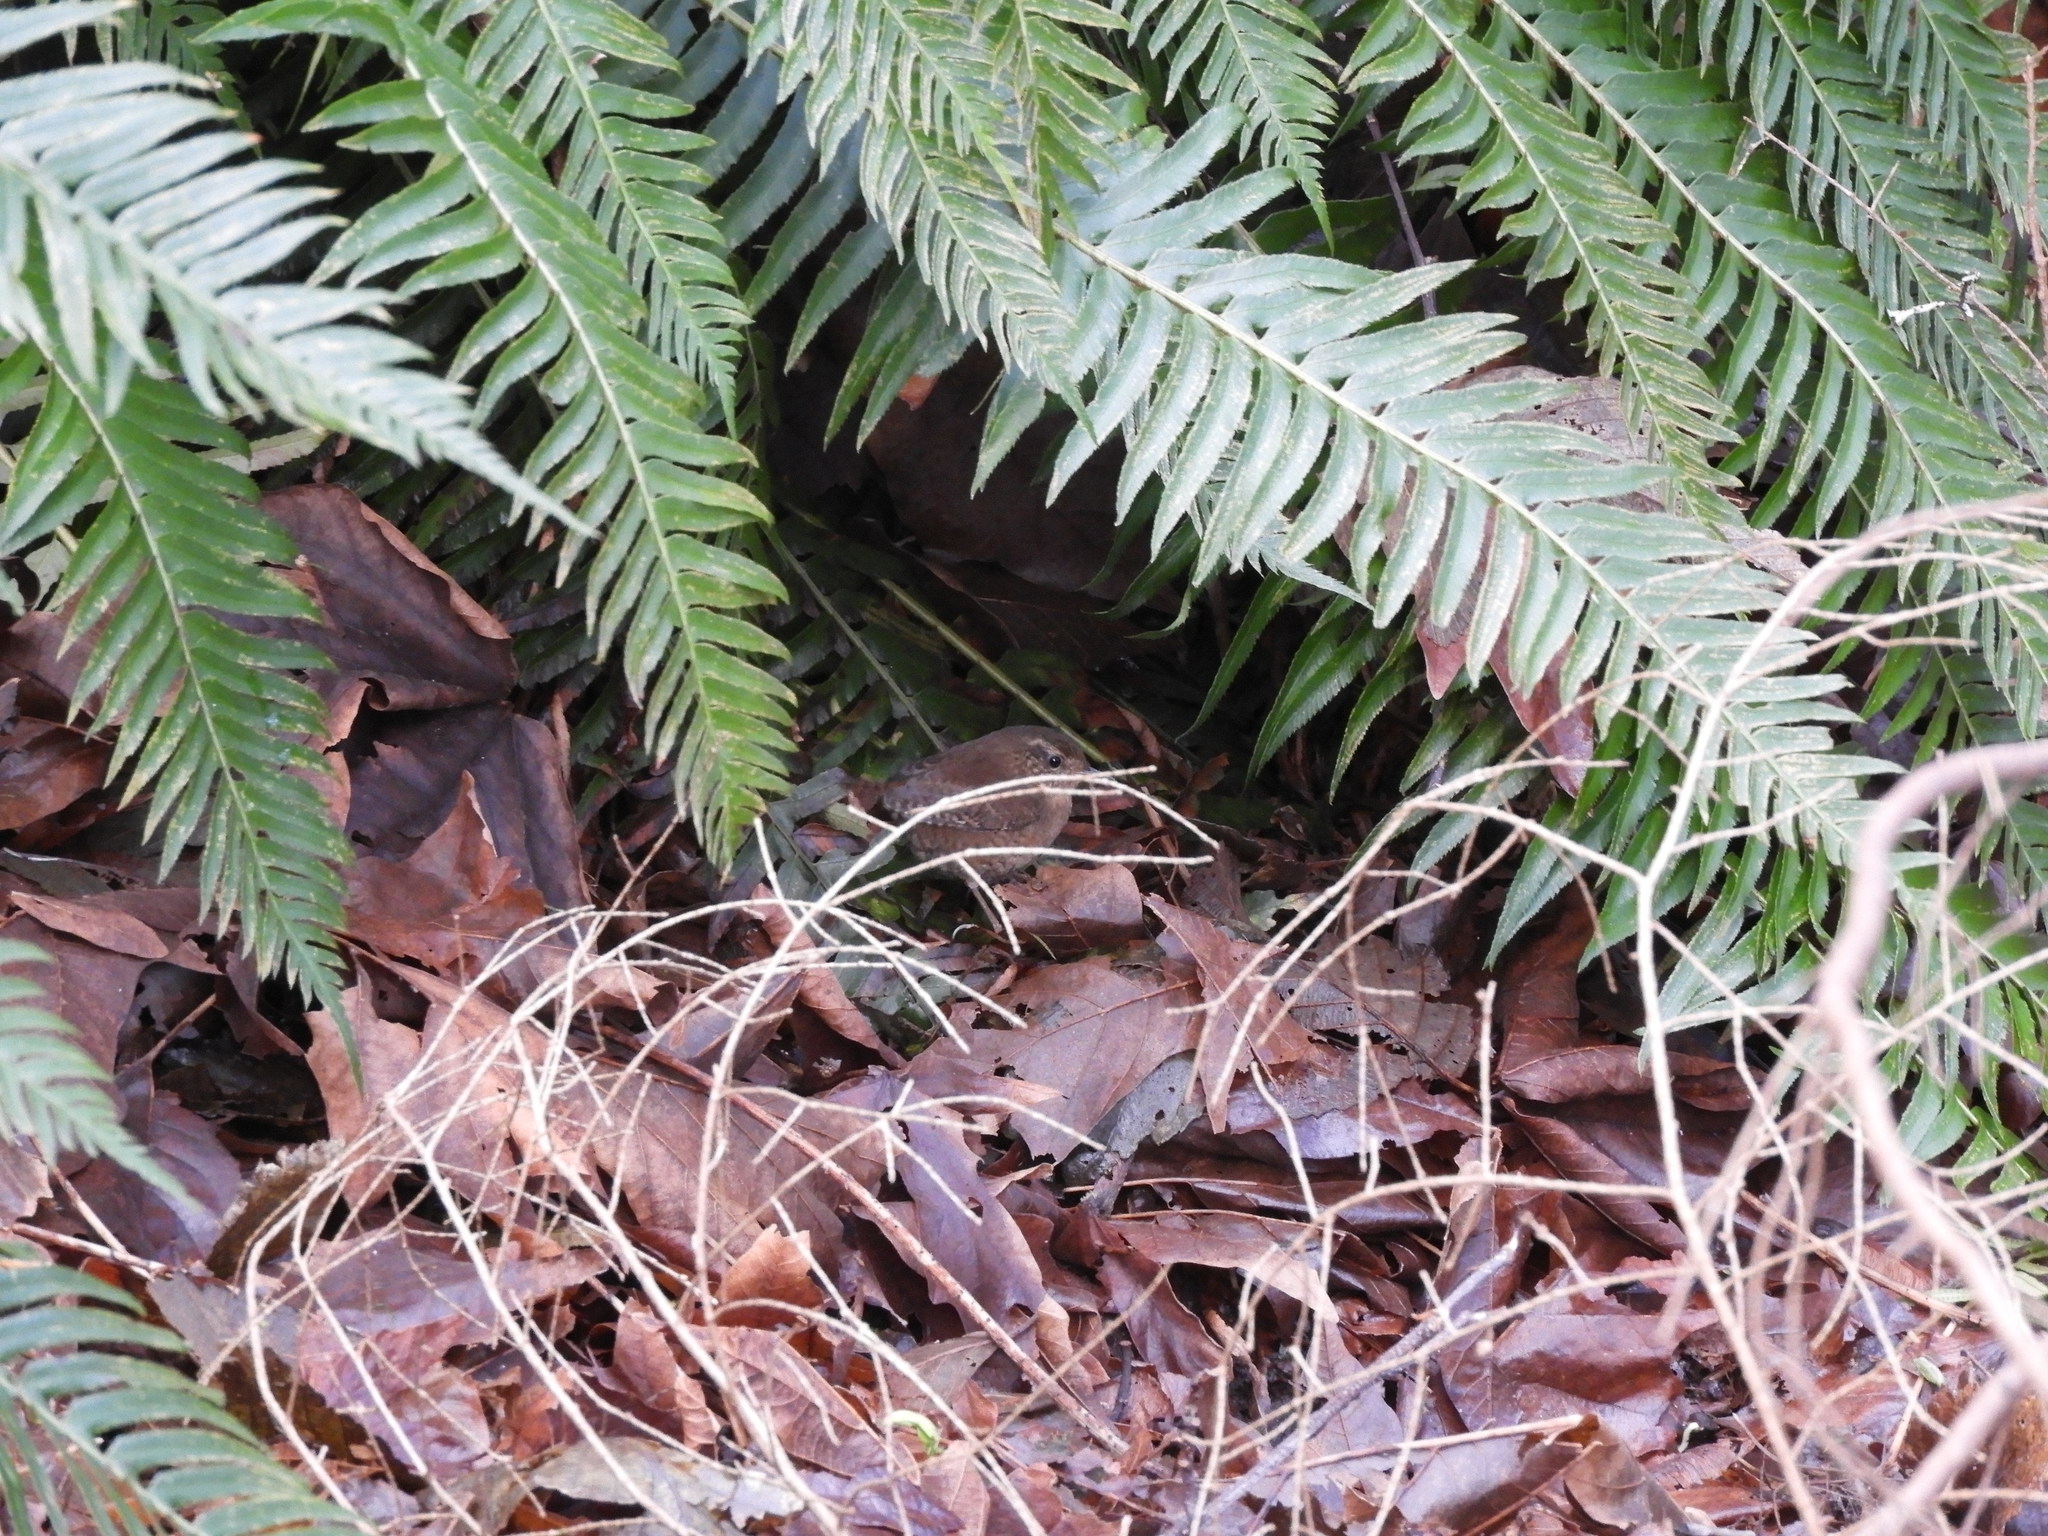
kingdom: Animalia
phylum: Chordata
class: Aves
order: Passeriformes
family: Troglodytidae
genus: Troglodytes
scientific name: Troglodytes pacificus
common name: Pacific wren
